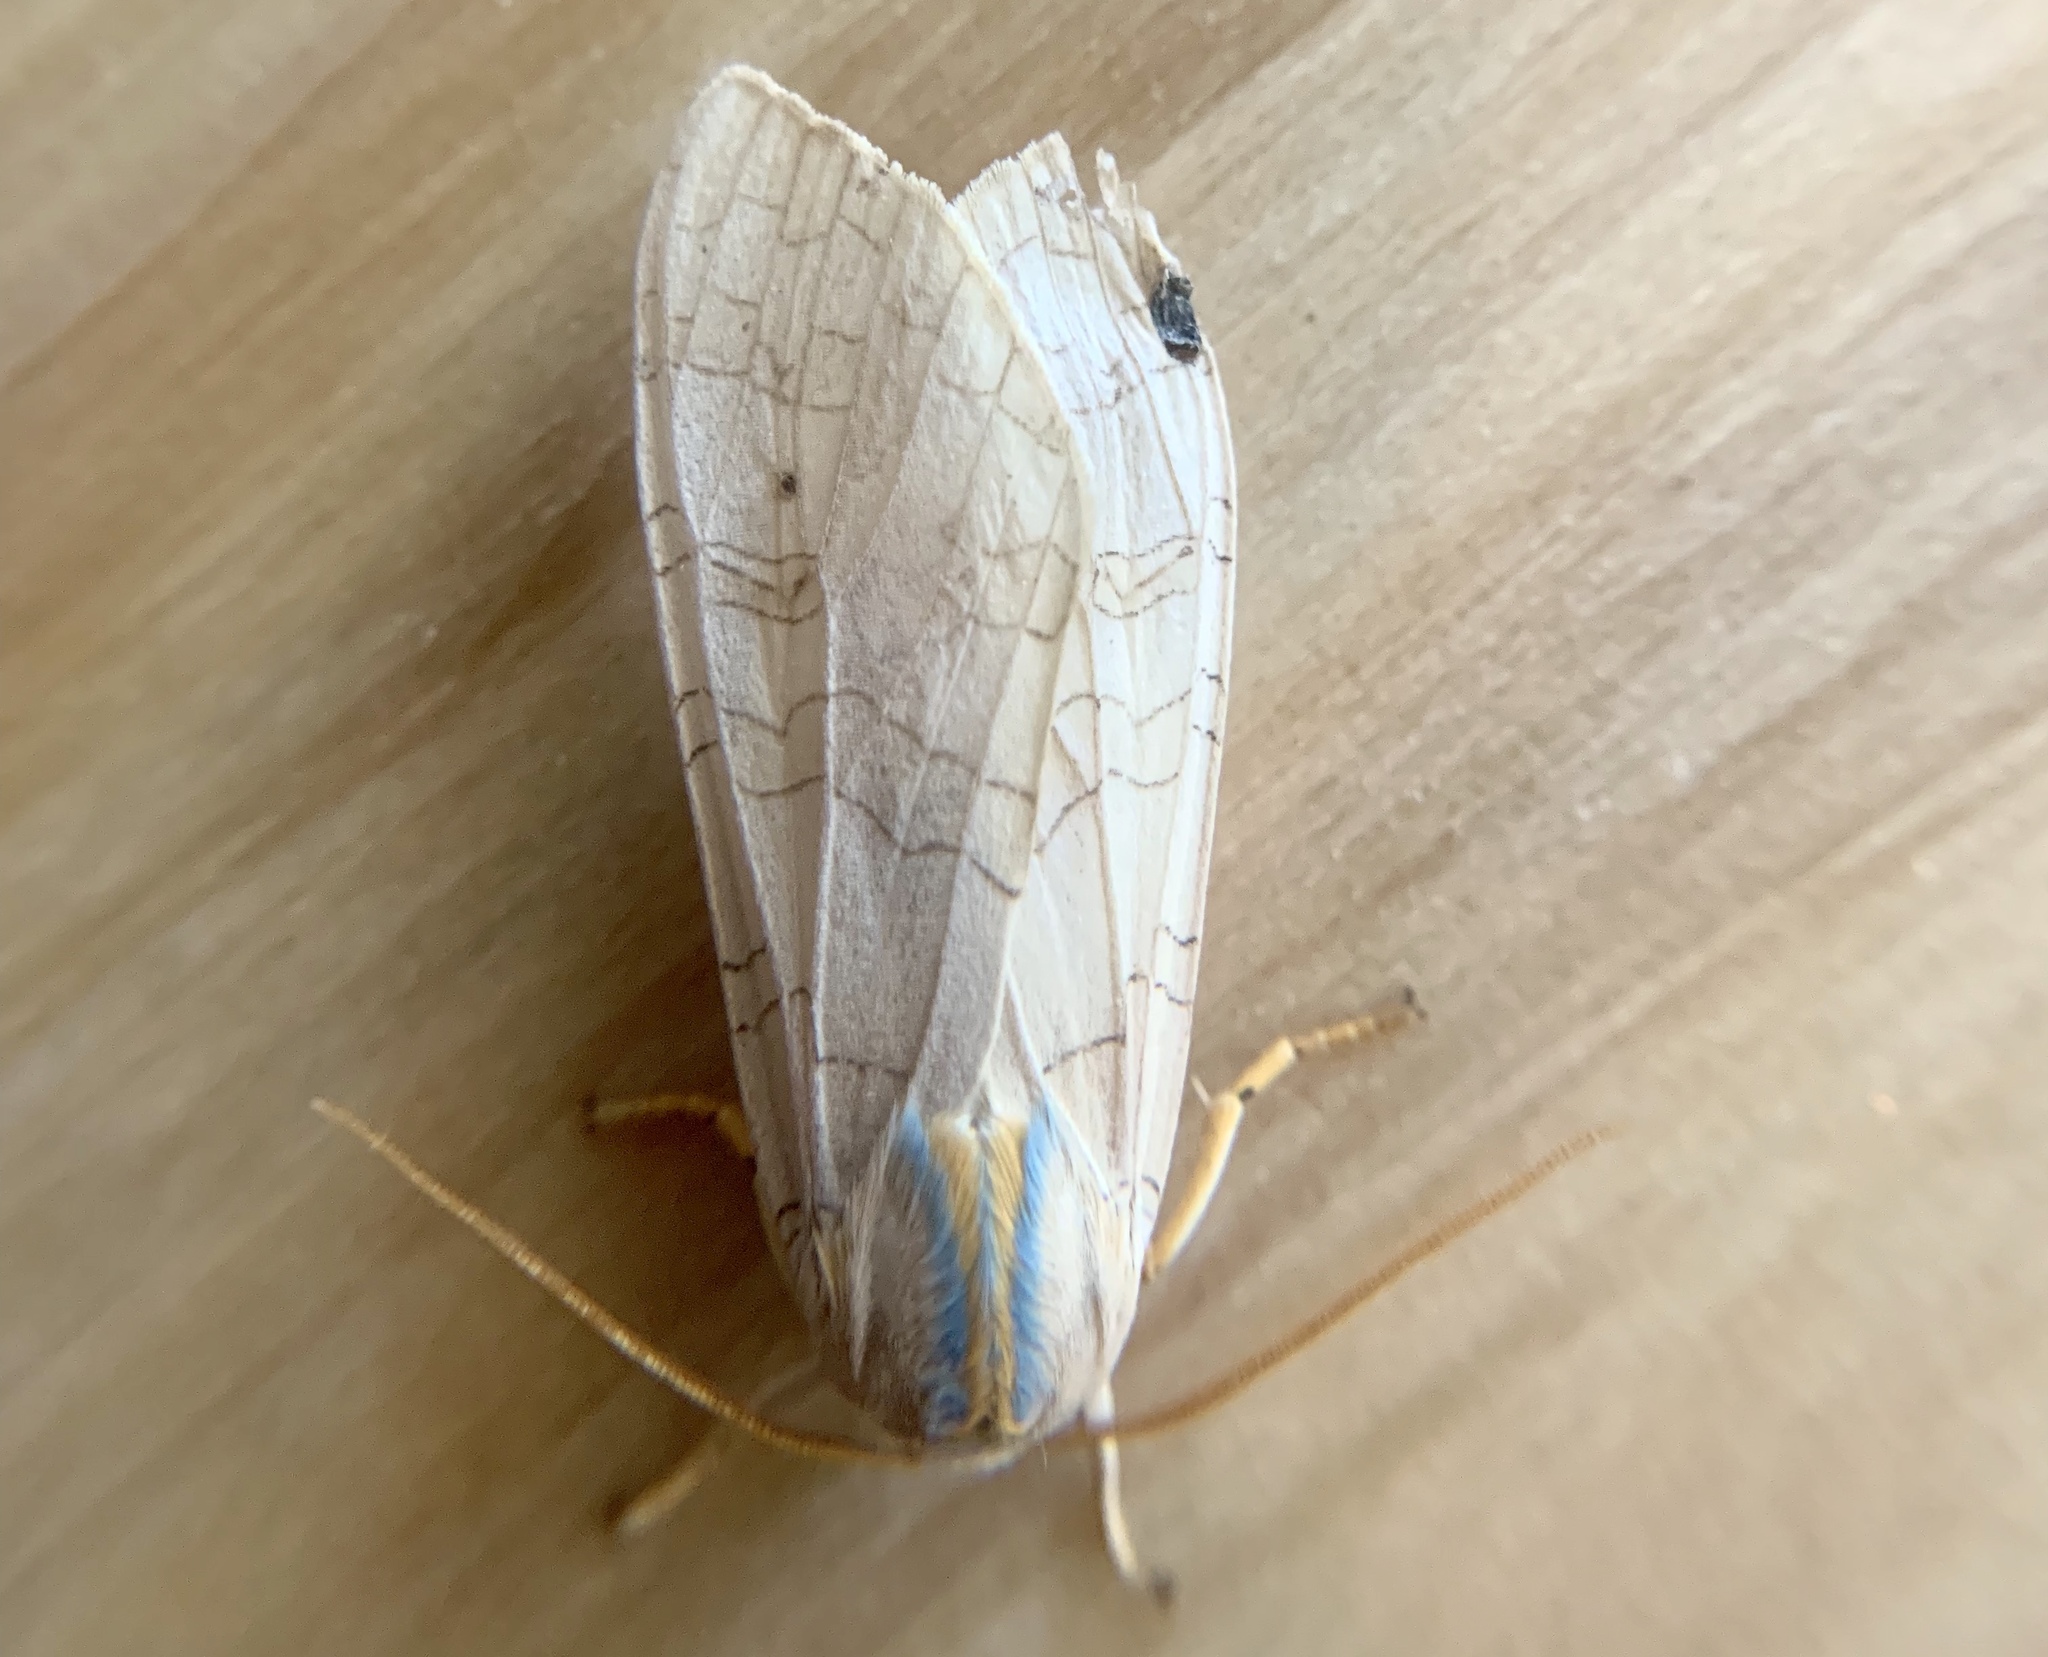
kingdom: Animalia
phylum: Arthropoda
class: Insecta
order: Lepidoptera
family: Erebidae
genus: Halysidota
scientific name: Halysidota tessellaris
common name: Banded tussock moth
